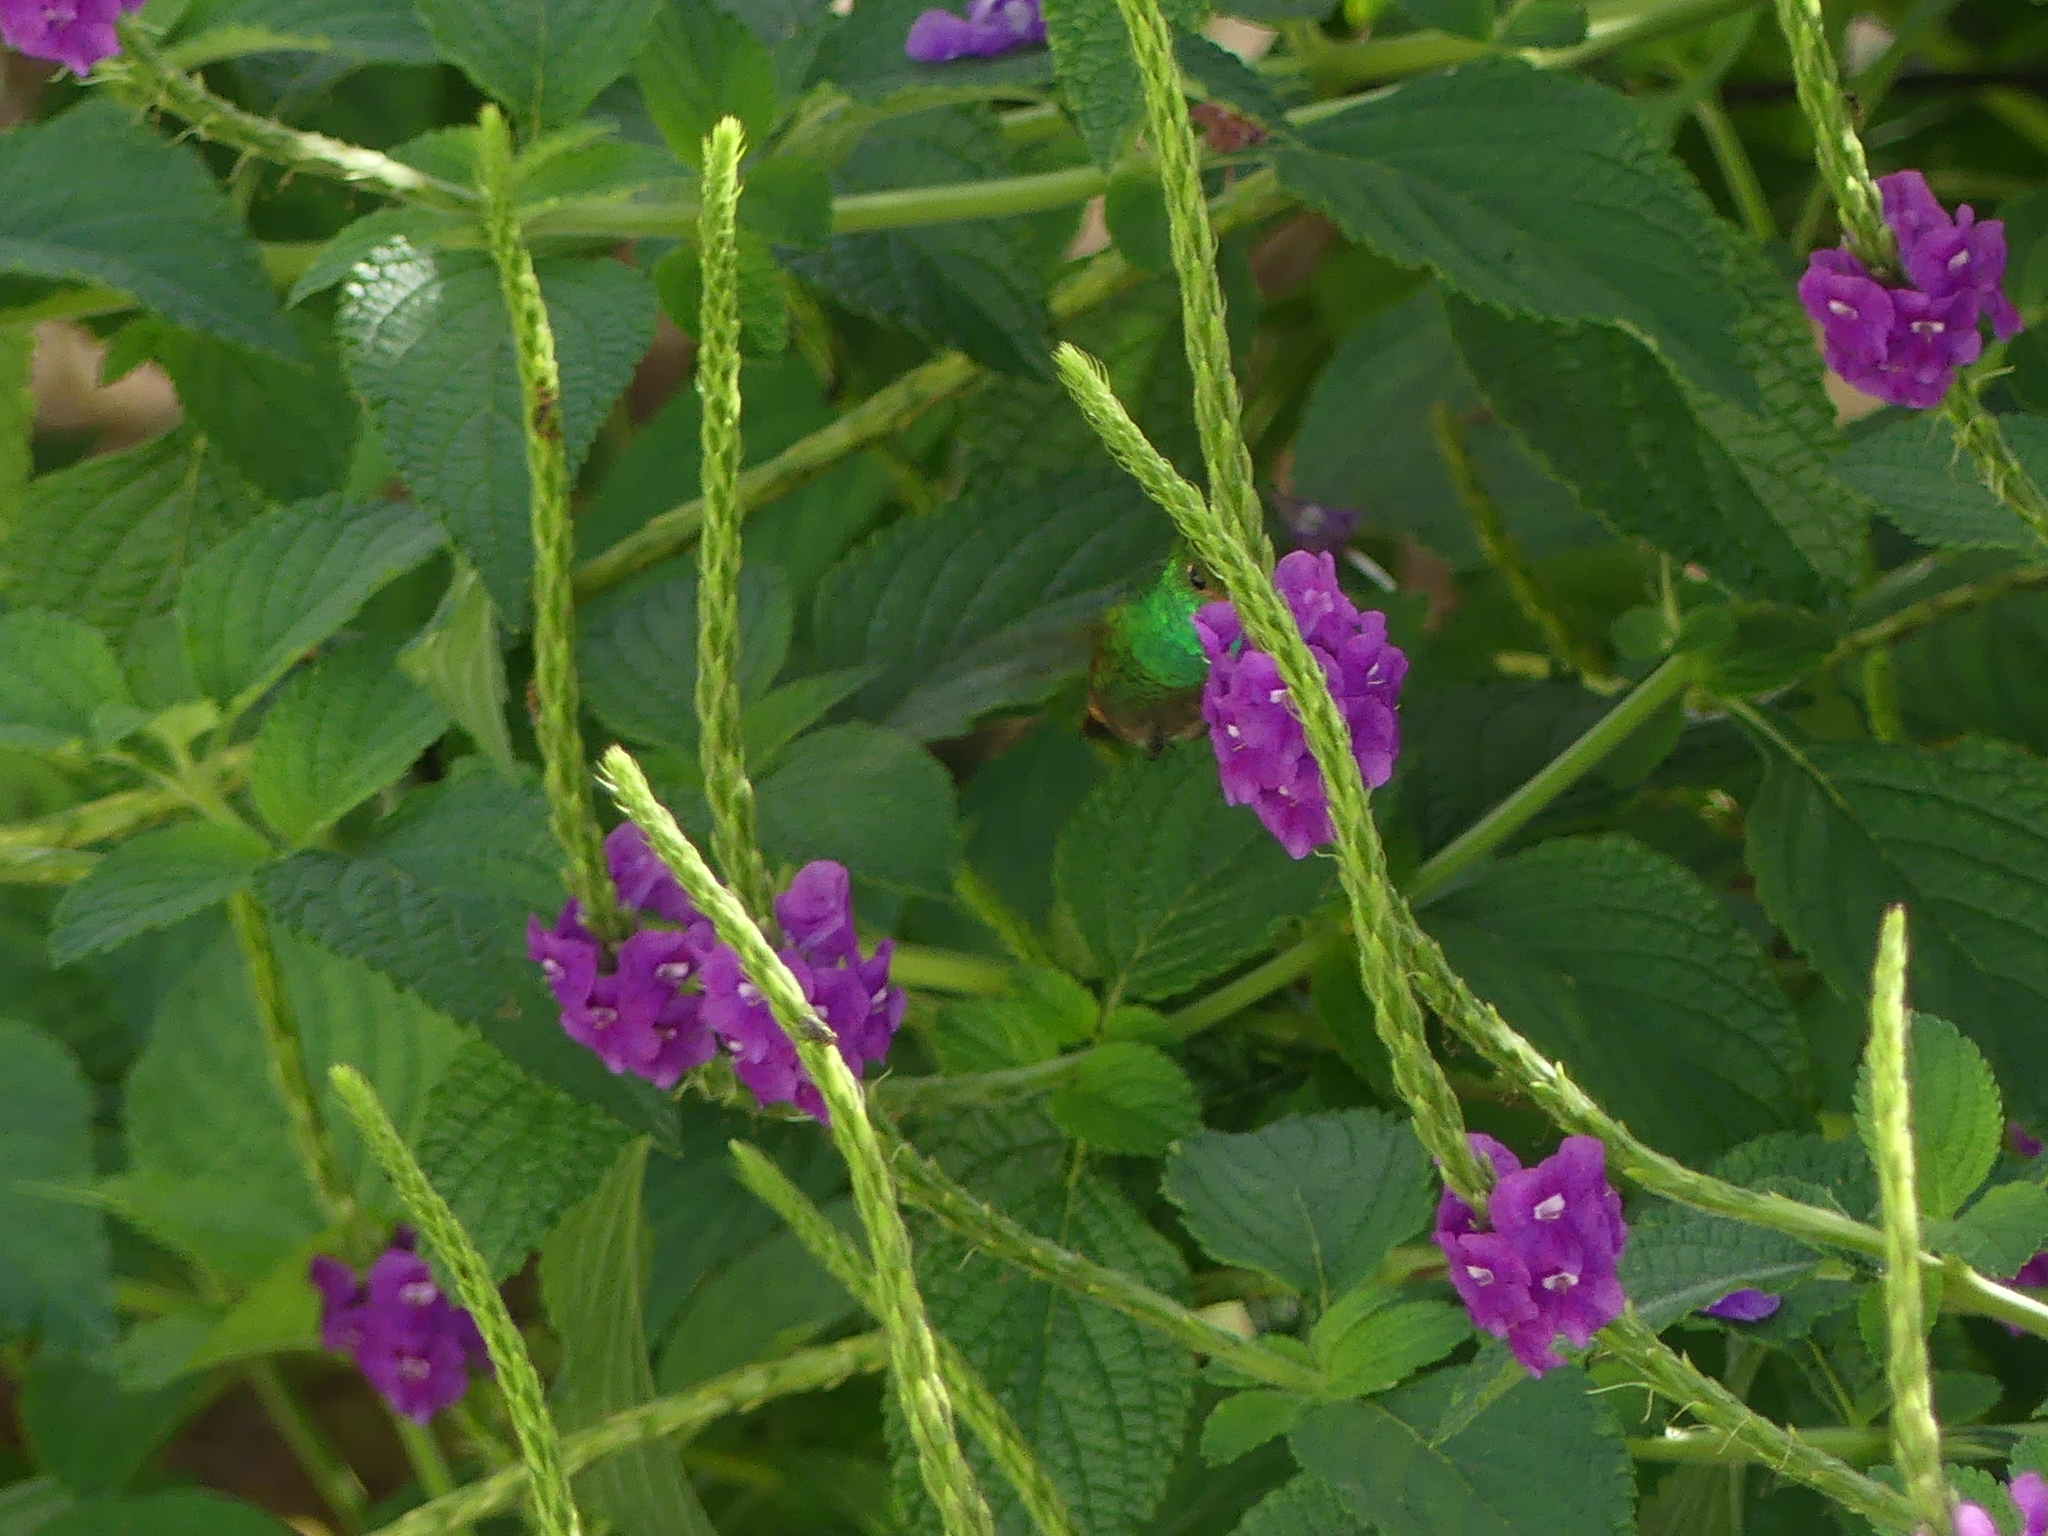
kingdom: Animalia
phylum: Chordata
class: Aves
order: Apodiformes
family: Trochilidae
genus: Amazilia
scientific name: Amazilia tzacatl
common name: Rufous-tailed hummingbird
